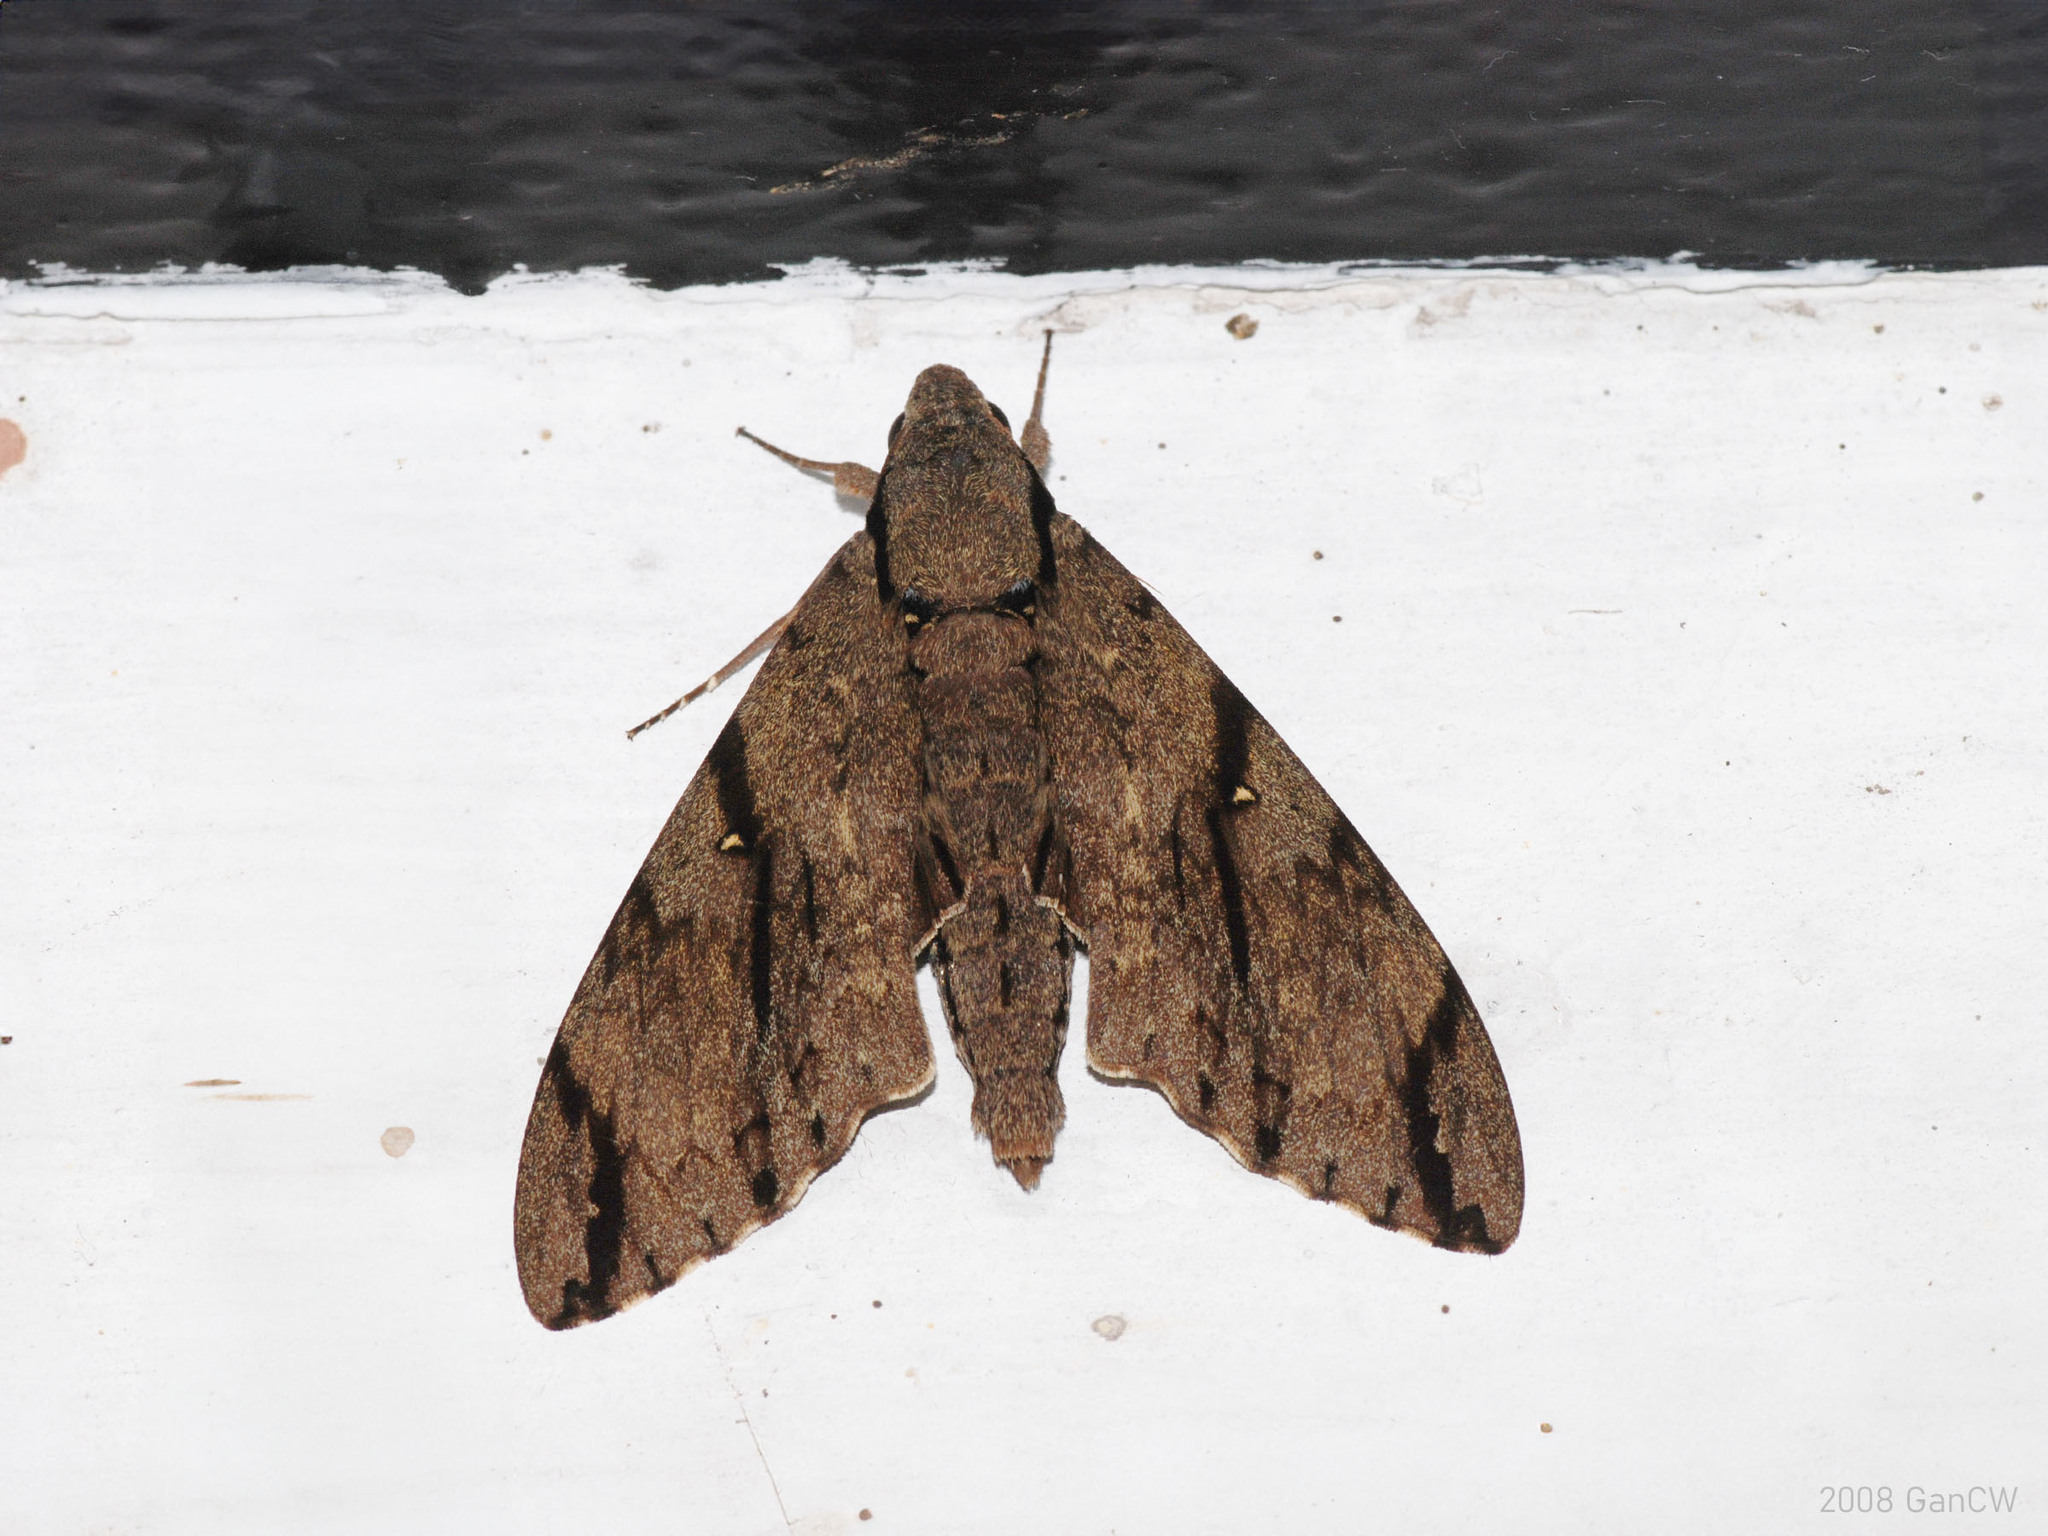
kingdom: Animalia
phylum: Arthropoda
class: Insecta
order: Lepidoptera
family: Sphingidae
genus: Cerberonoton
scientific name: Cerberonoton rubescens
